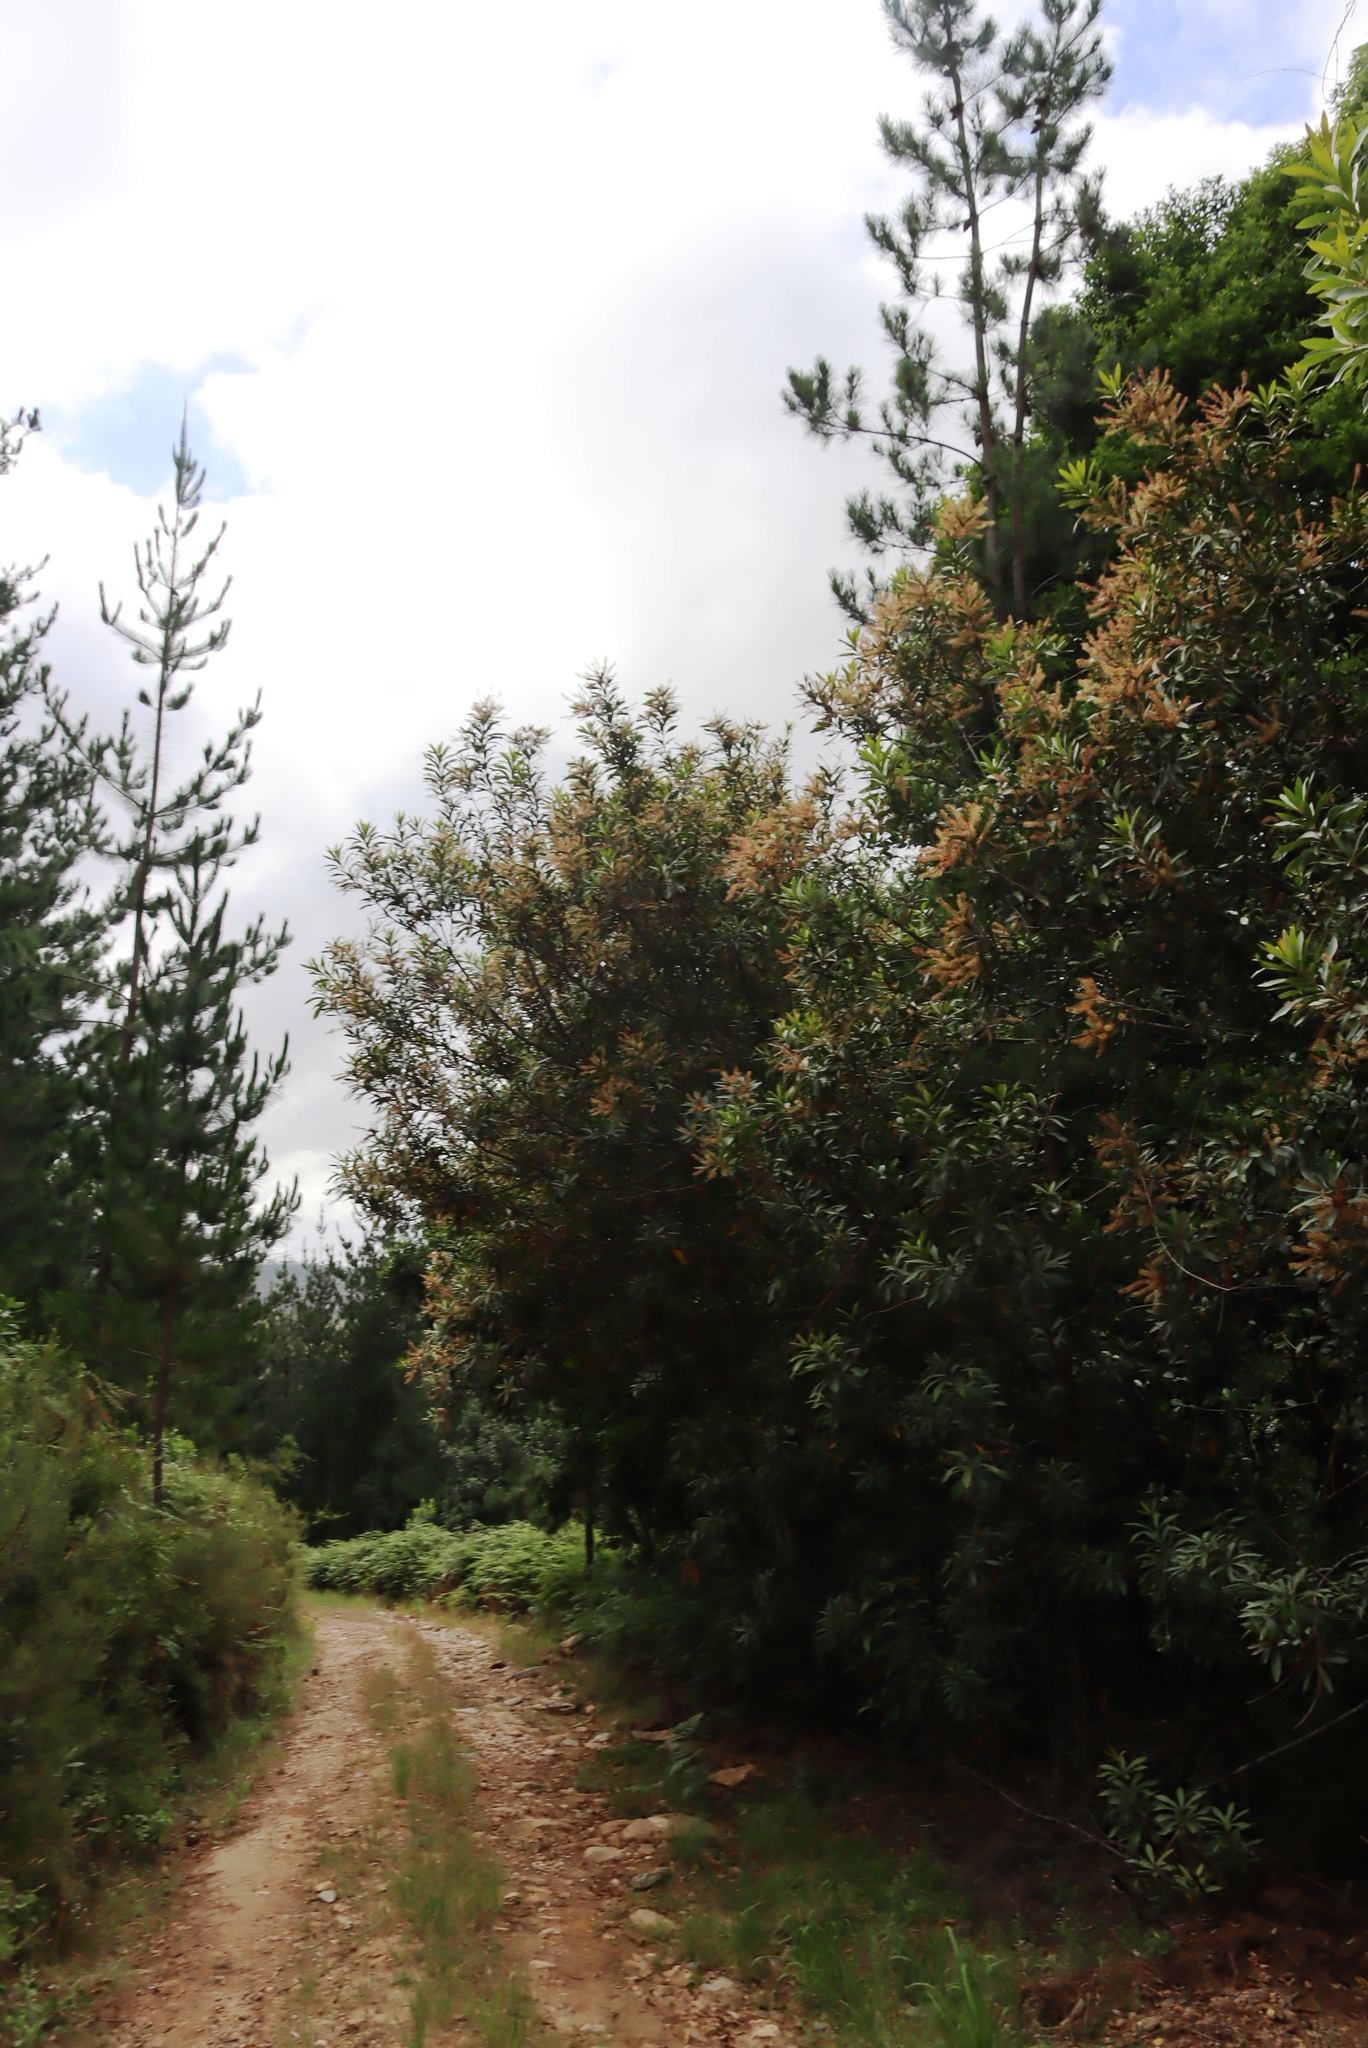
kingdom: Plantae
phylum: Tracheophyta
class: Magnoliopsida
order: Proteales
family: Proteaceae
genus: Brabejum
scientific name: Brabejum stellatifolium
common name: Wild almond
